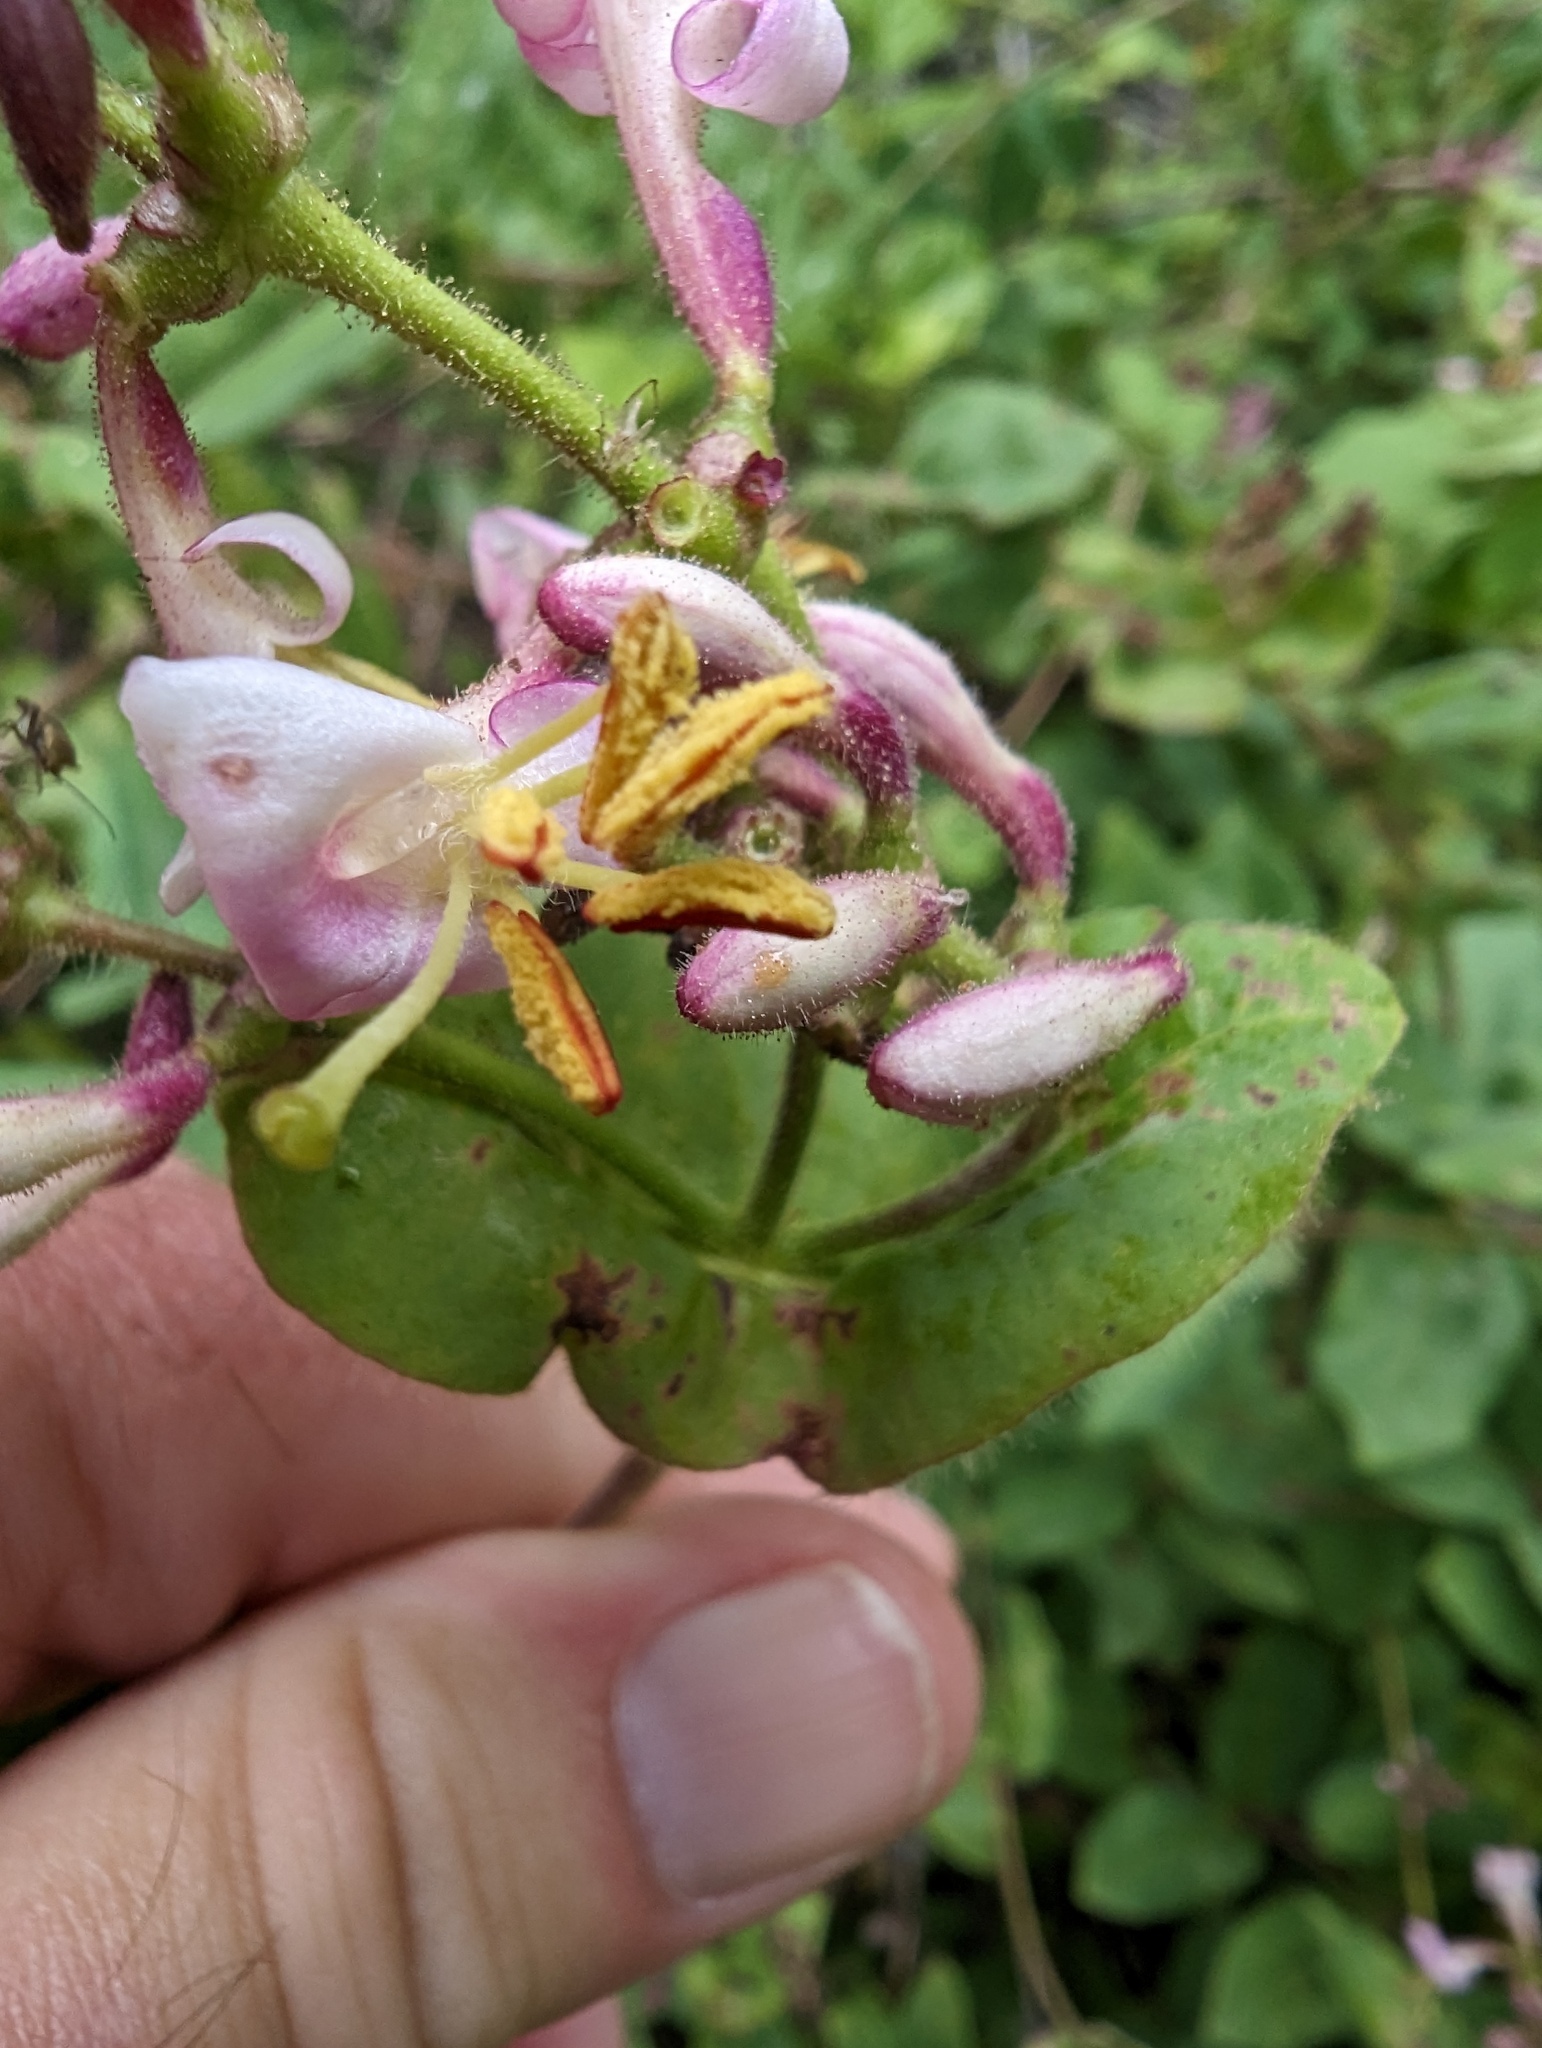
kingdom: Plantae
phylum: Tracheophyta
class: Magnoliopsida
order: Dipsacales
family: Caprifoliaceae
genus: Lonicera
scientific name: Lonicera hispidula
